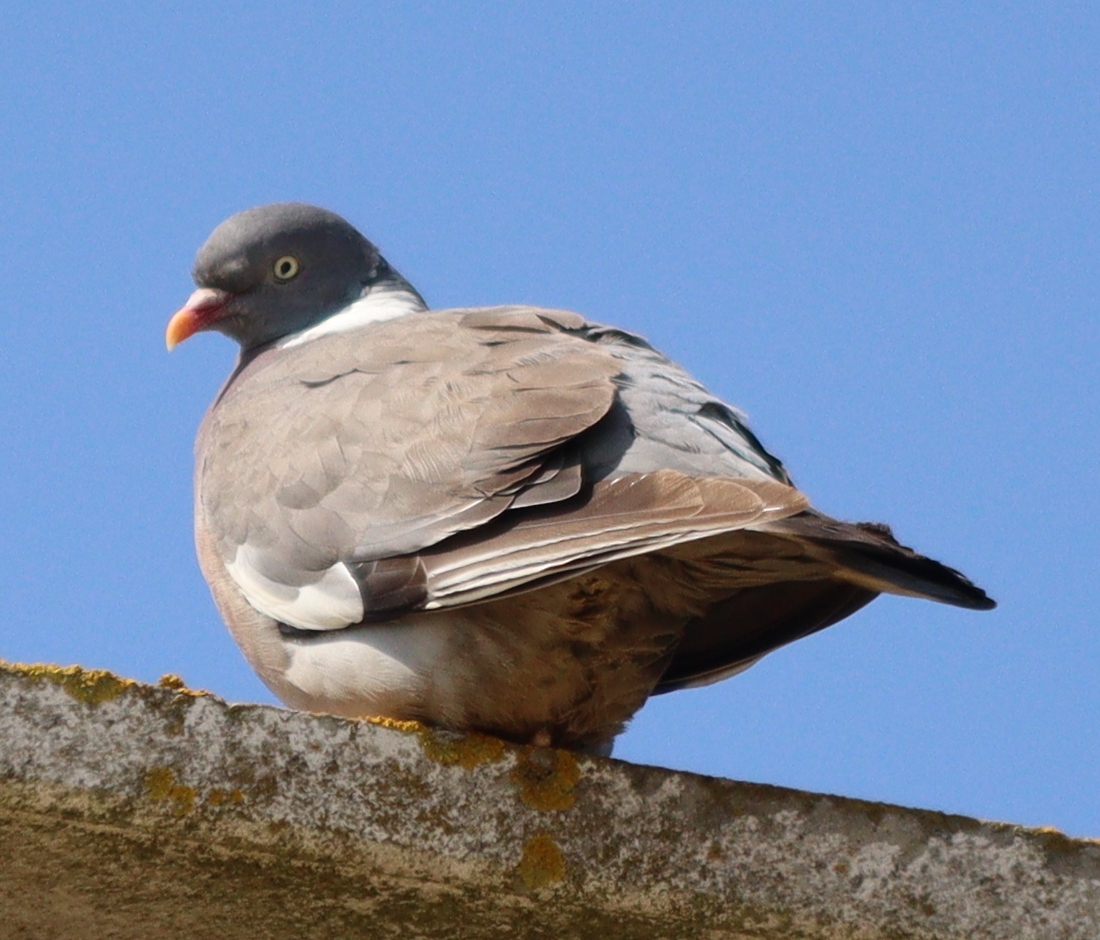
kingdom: Animalia
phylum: Chordata
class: Aves
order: Columbiformes
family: Columbidae
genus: Columba
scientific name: Columba palumbus
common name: Common wood pigeon
